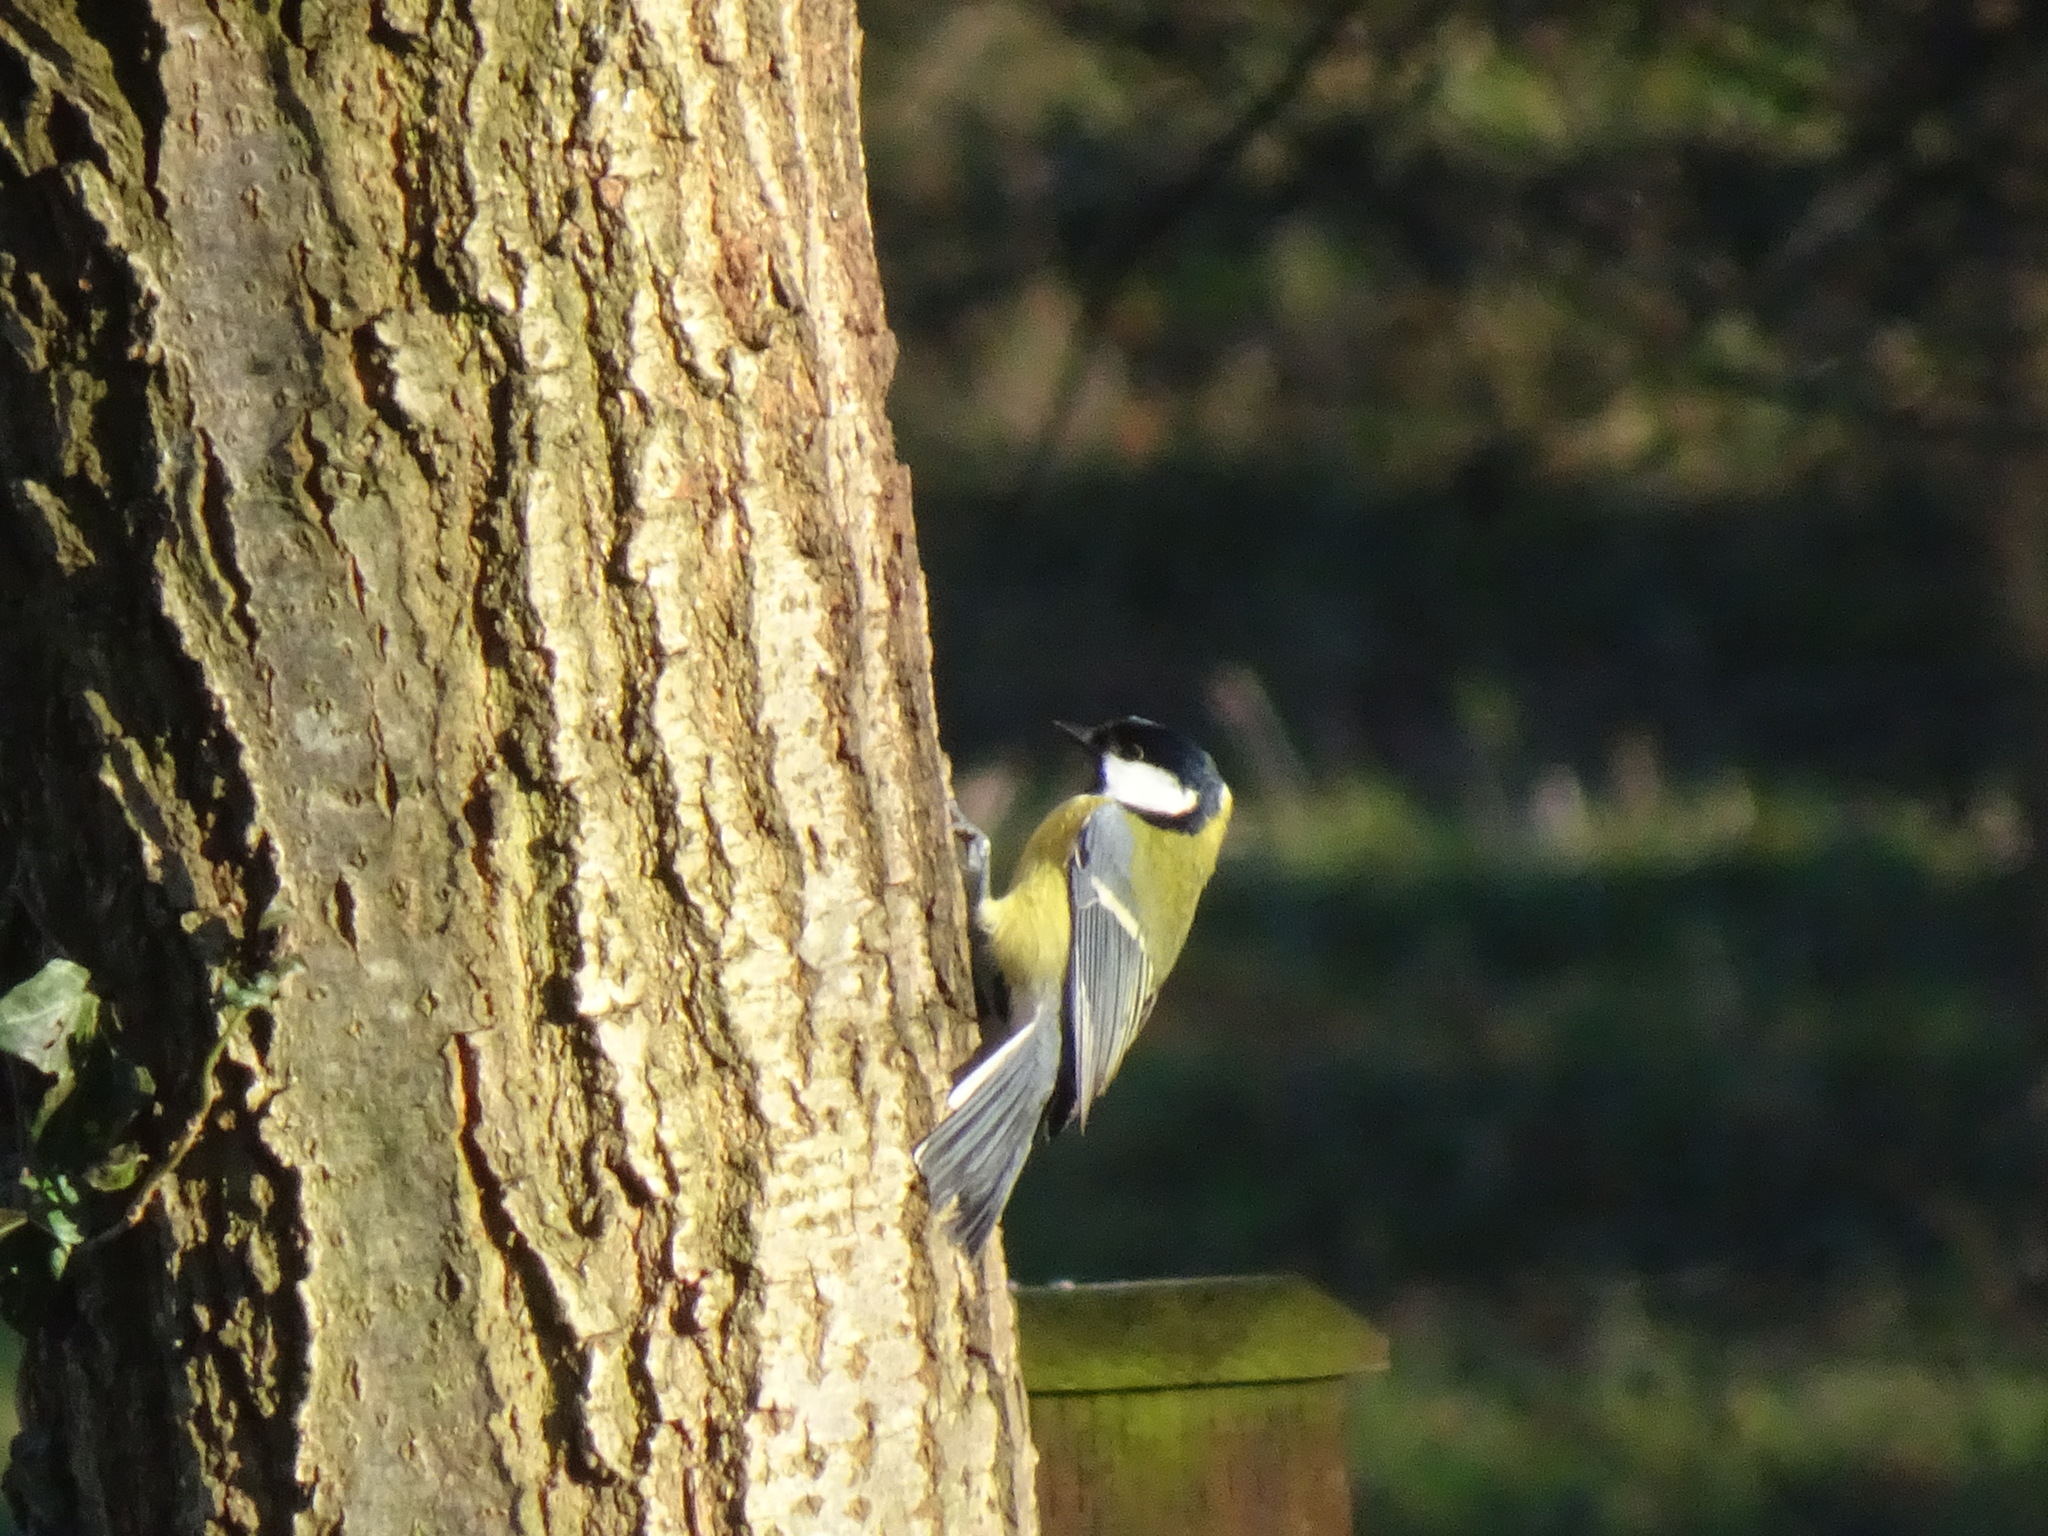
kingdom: Animalia
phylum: Chordata
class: Aves
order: Passeriformes
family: Paridae
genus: Parus
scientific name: Parus major
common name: Great tit
